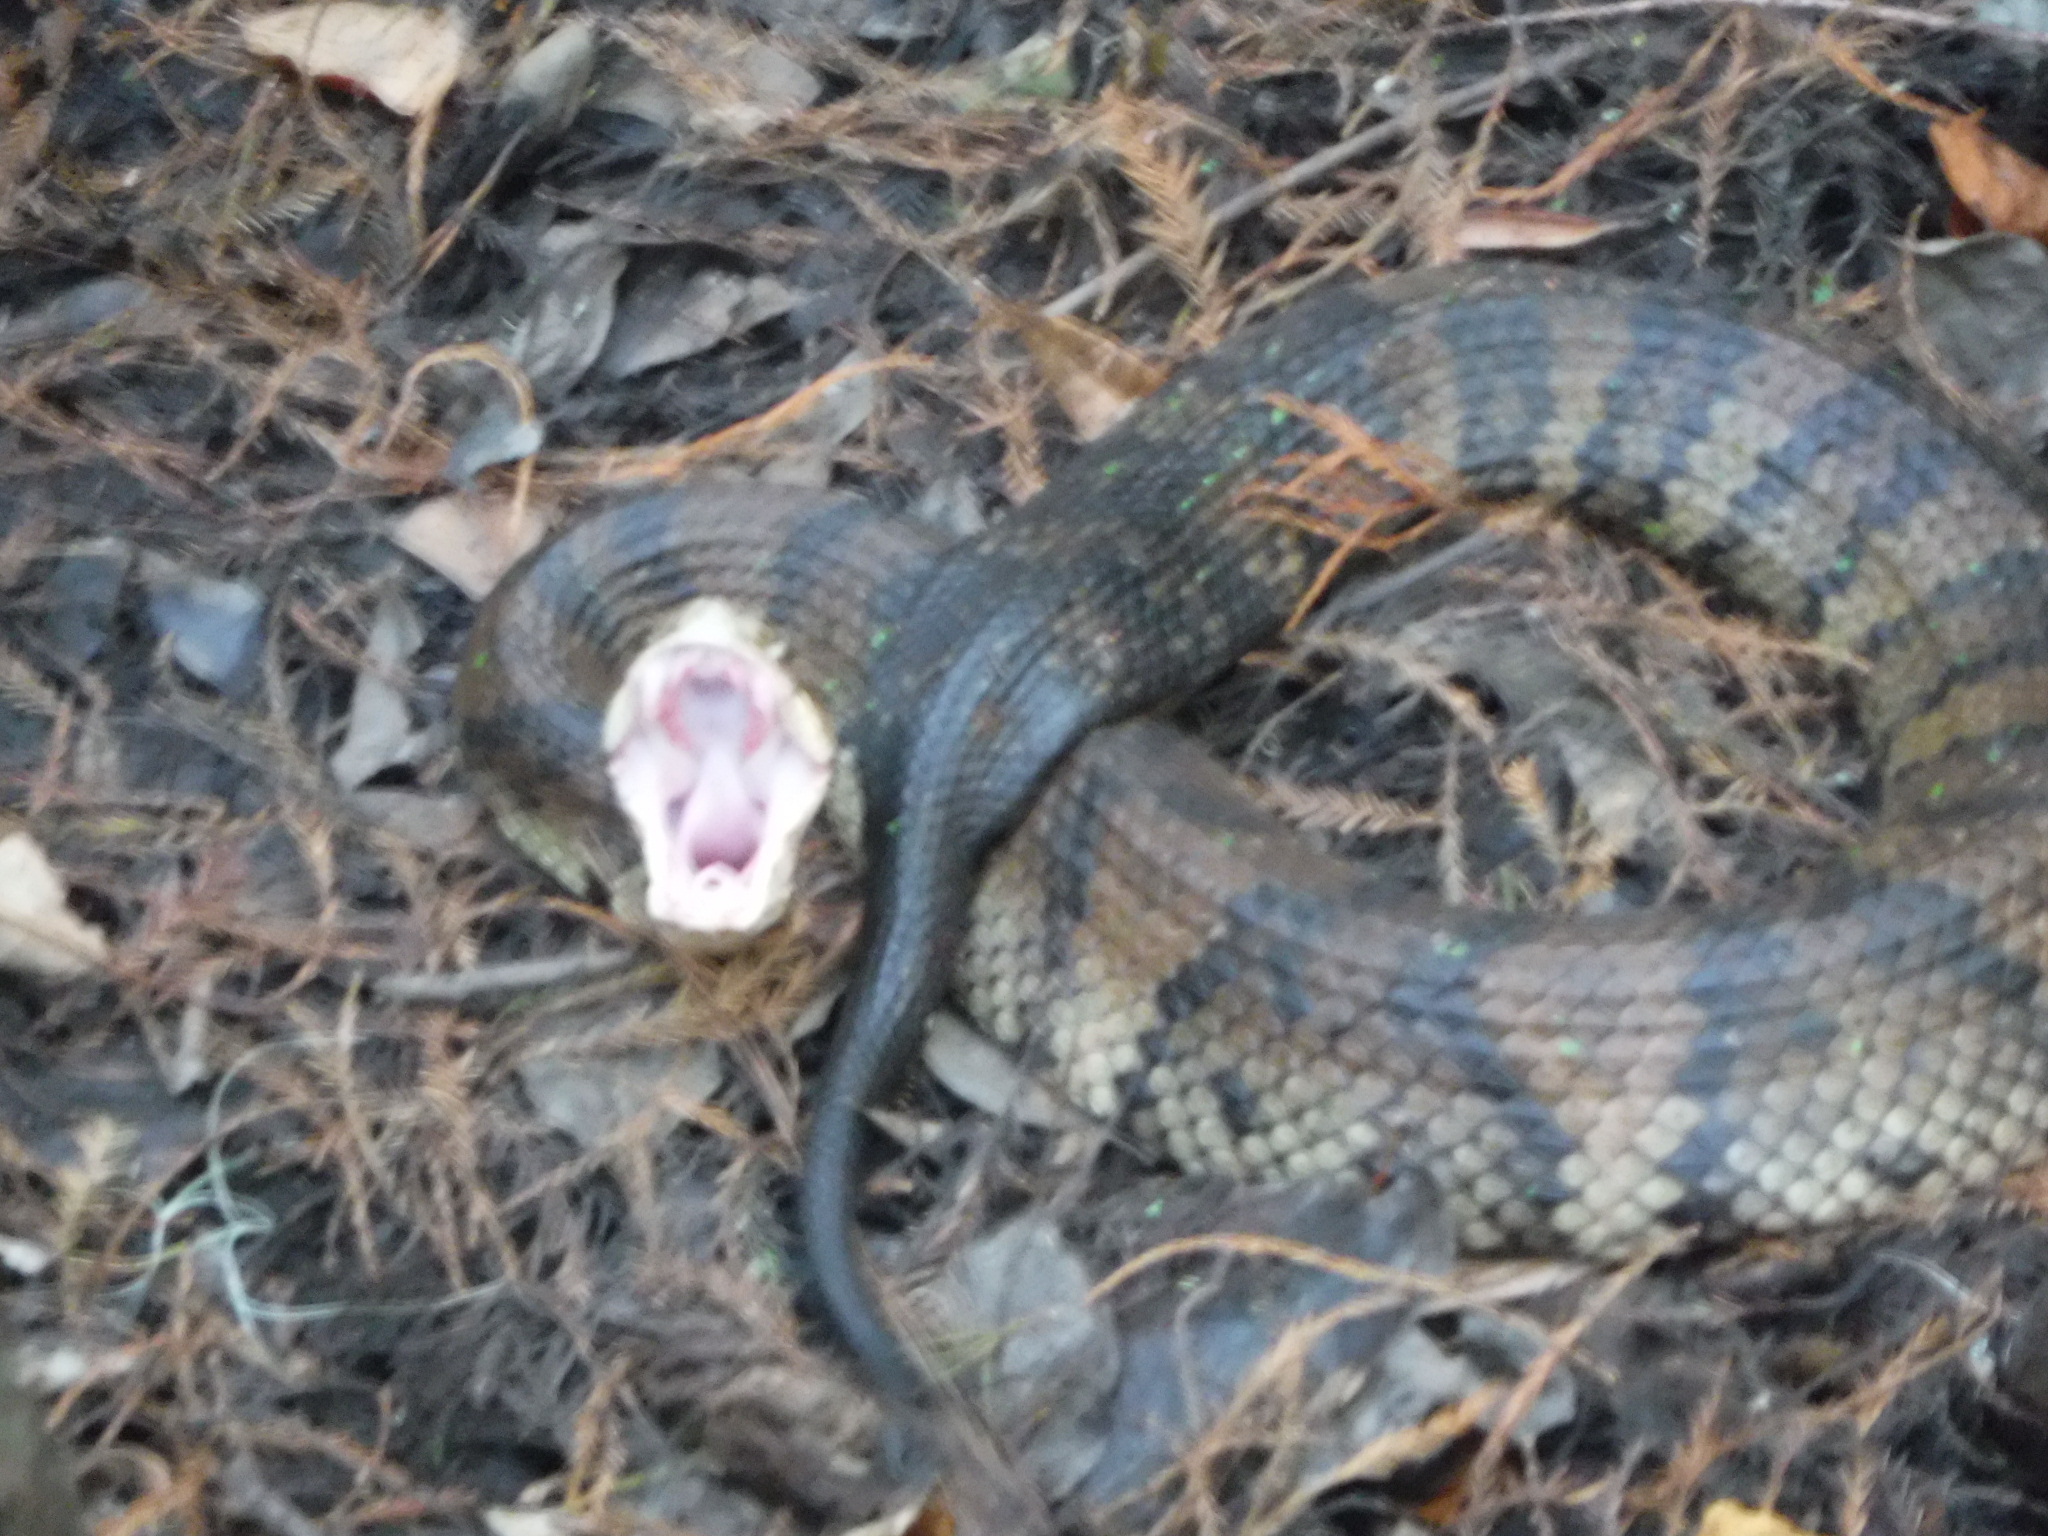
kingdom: Animalia
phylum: Chordata
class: Squamata
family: Viperidae
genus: Agkistrodon
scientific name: Agkistrodon piscivorus
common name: Cottonmouth
